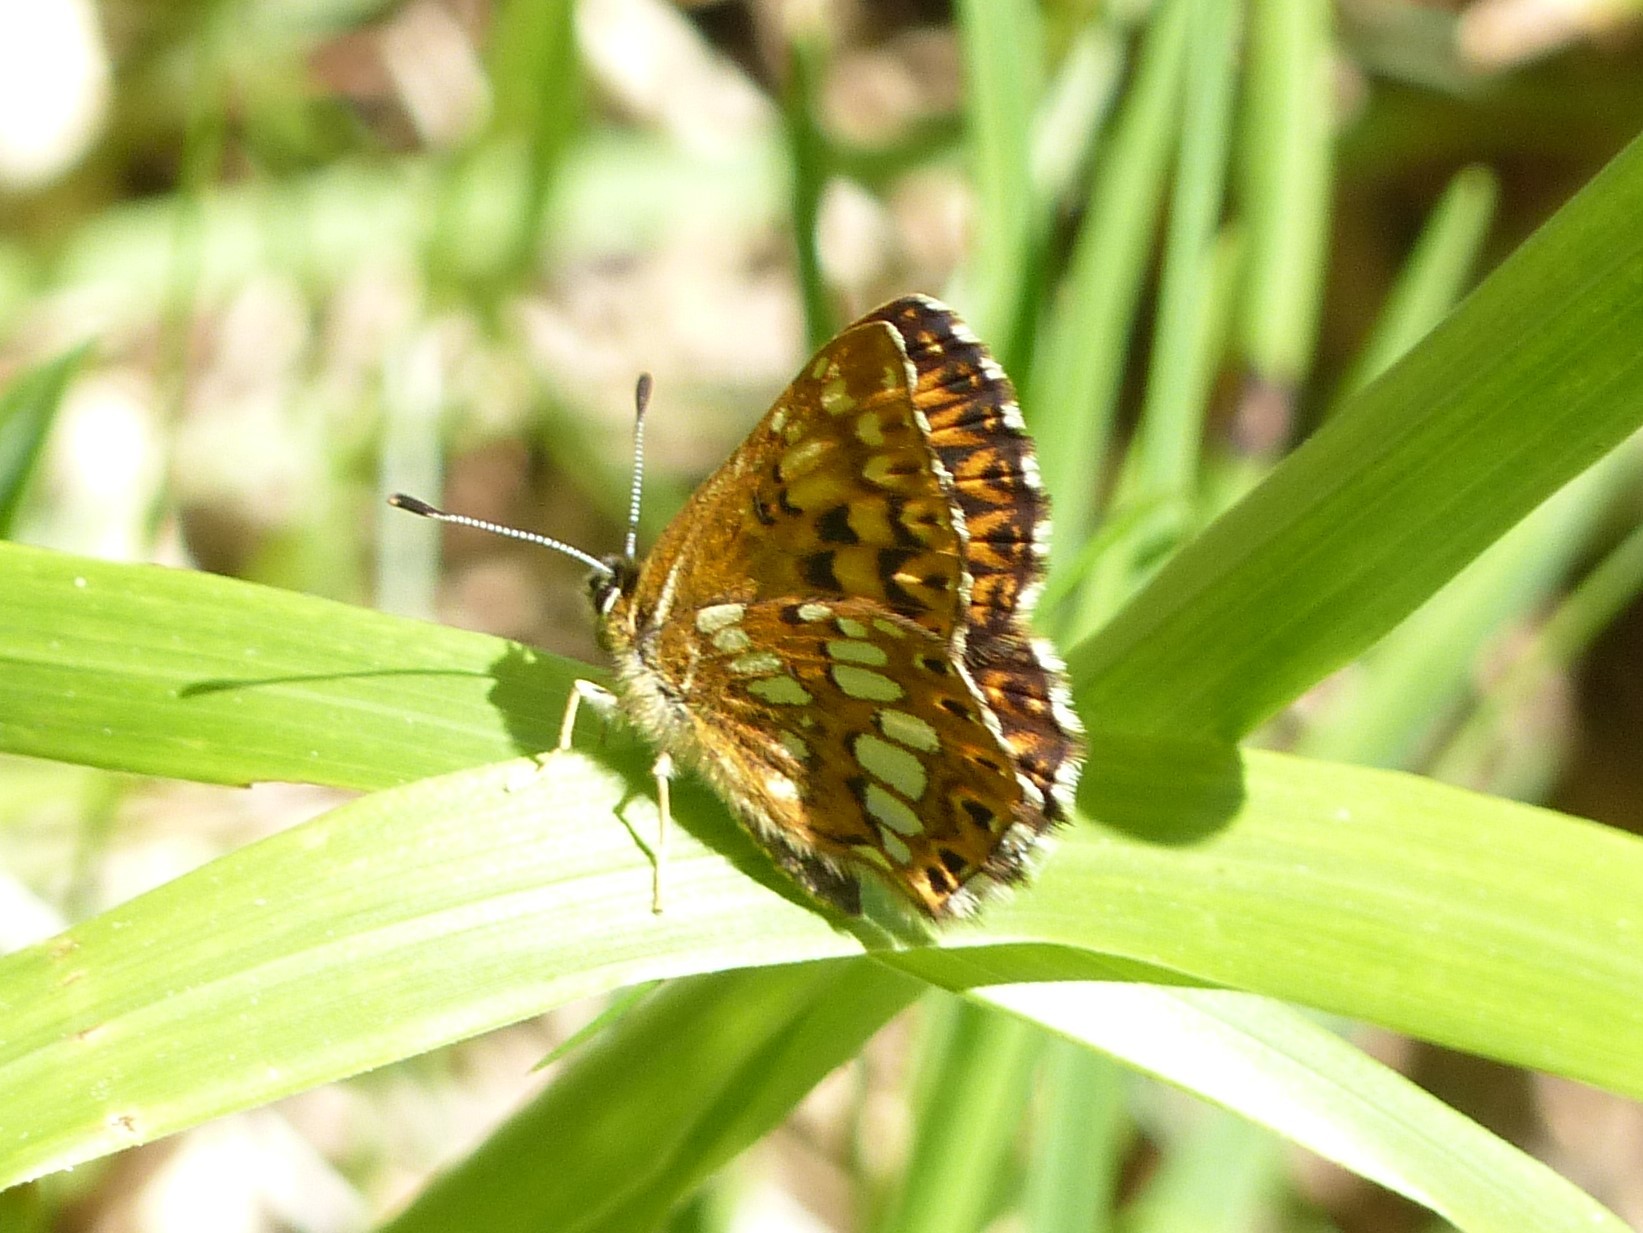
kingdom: Animalia
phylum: Arthropoda
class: Insecta
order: Lepidoptera
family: Riodinidae
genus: Hamearis
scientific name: Hamearis lucina
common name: Duke of burgundy fritillary
